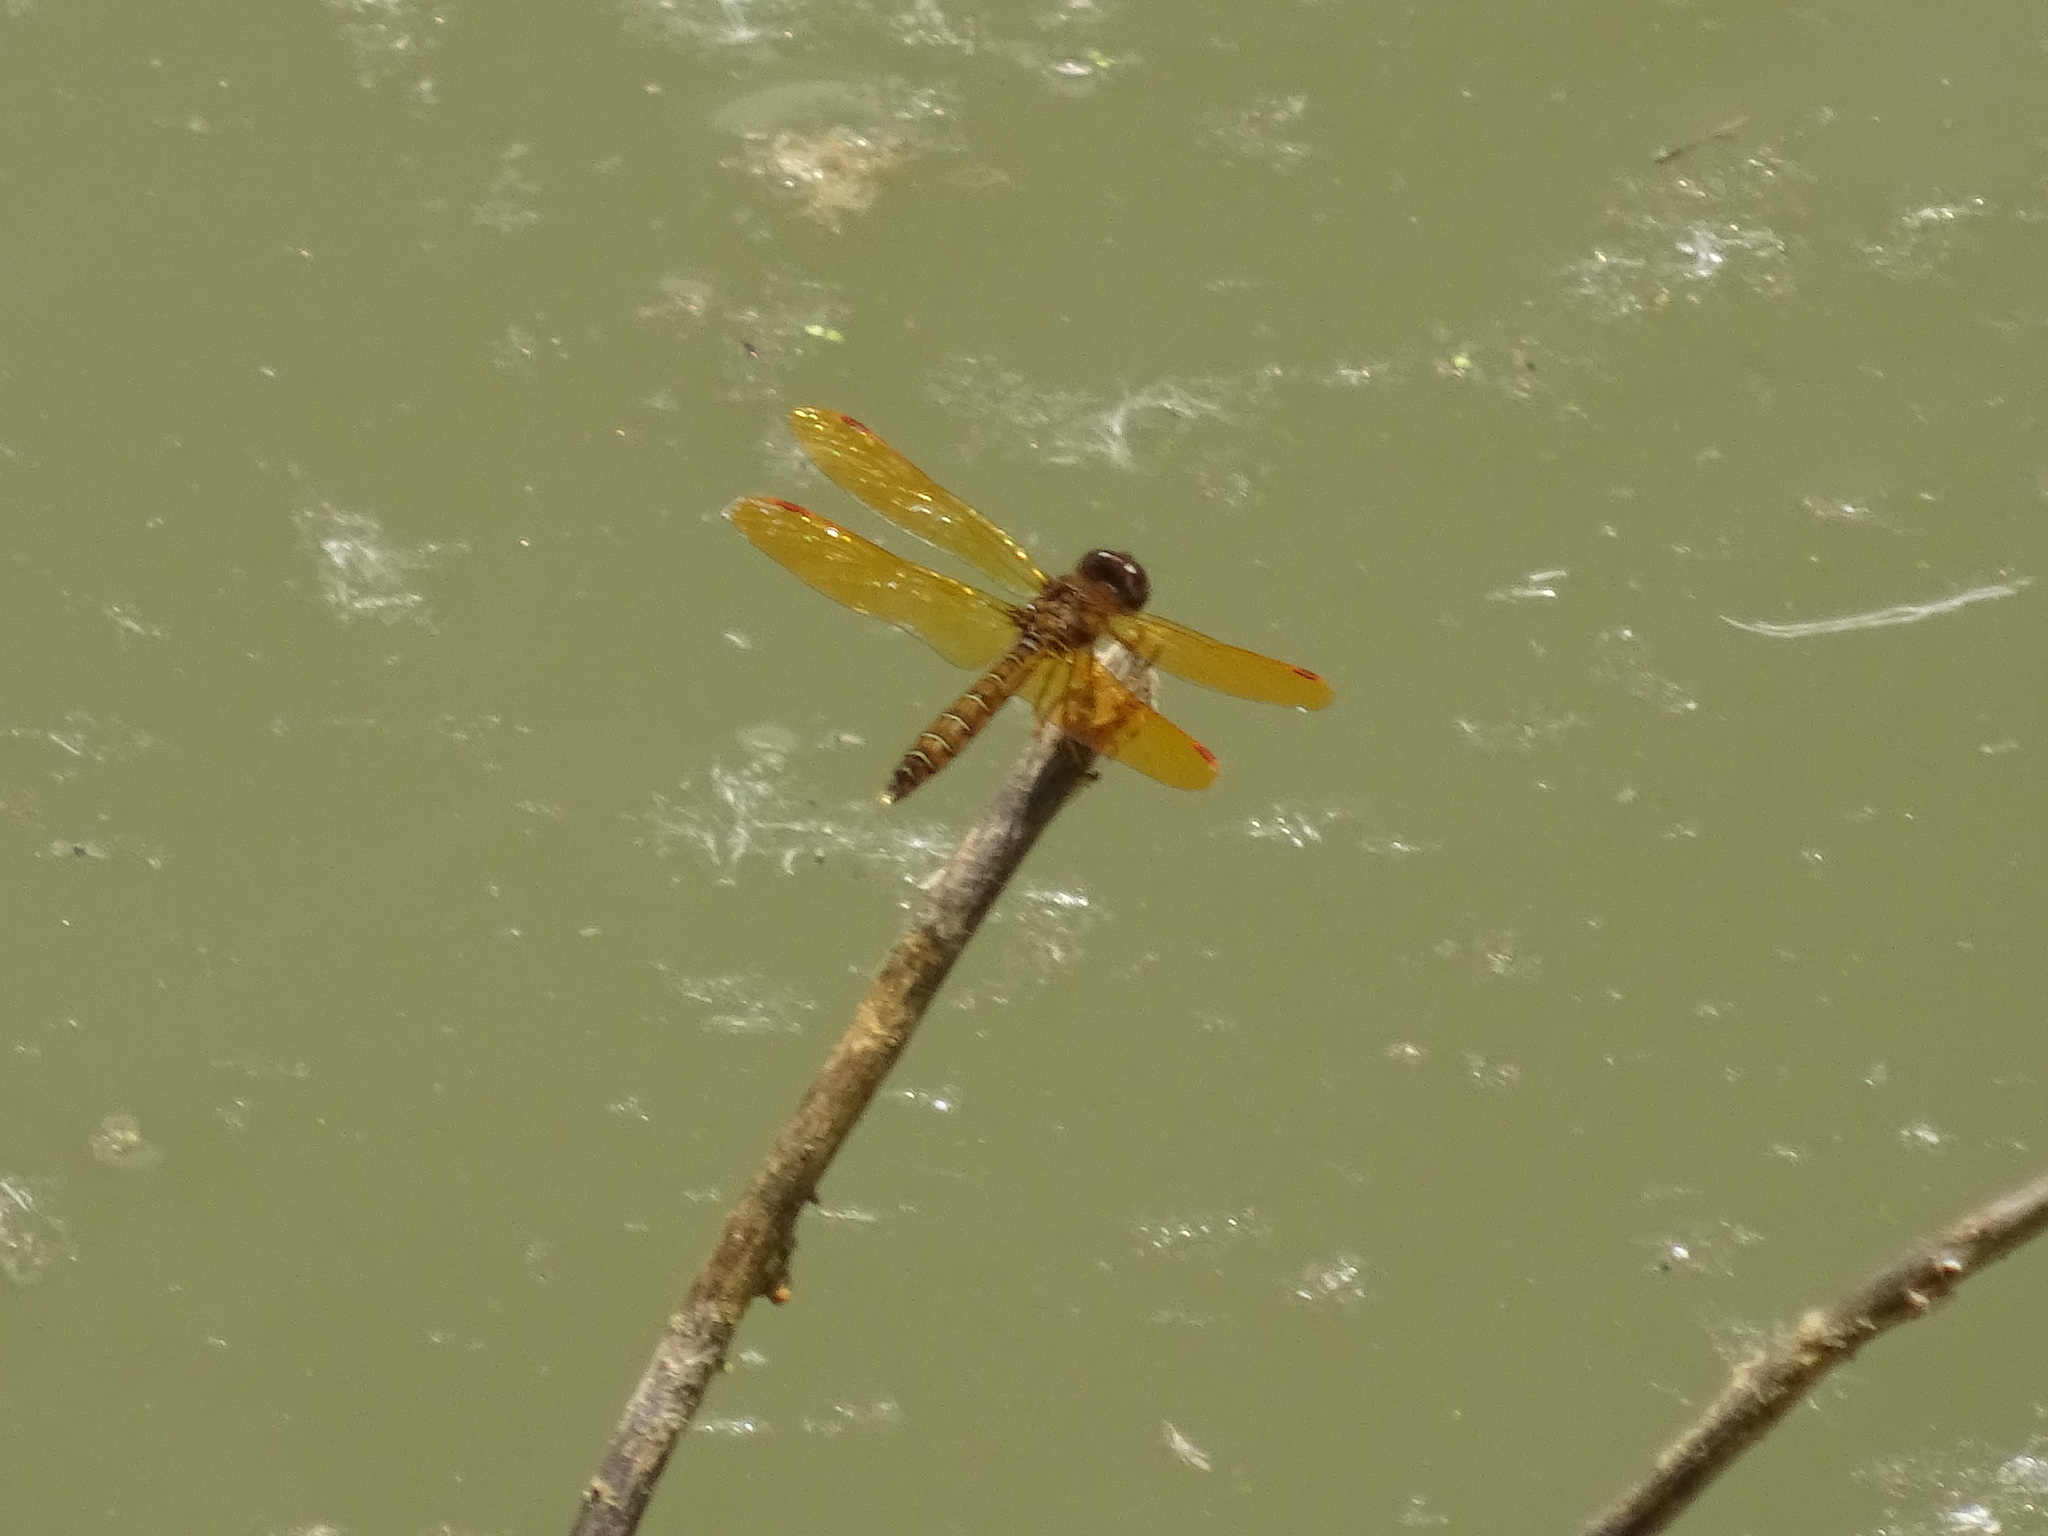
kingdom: Animalia
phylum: Arthropoda
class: Insecta
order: Odonata
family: Libellulidae
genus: Perithemis
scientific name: Perithemis tenera
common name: Eastern amberwing
